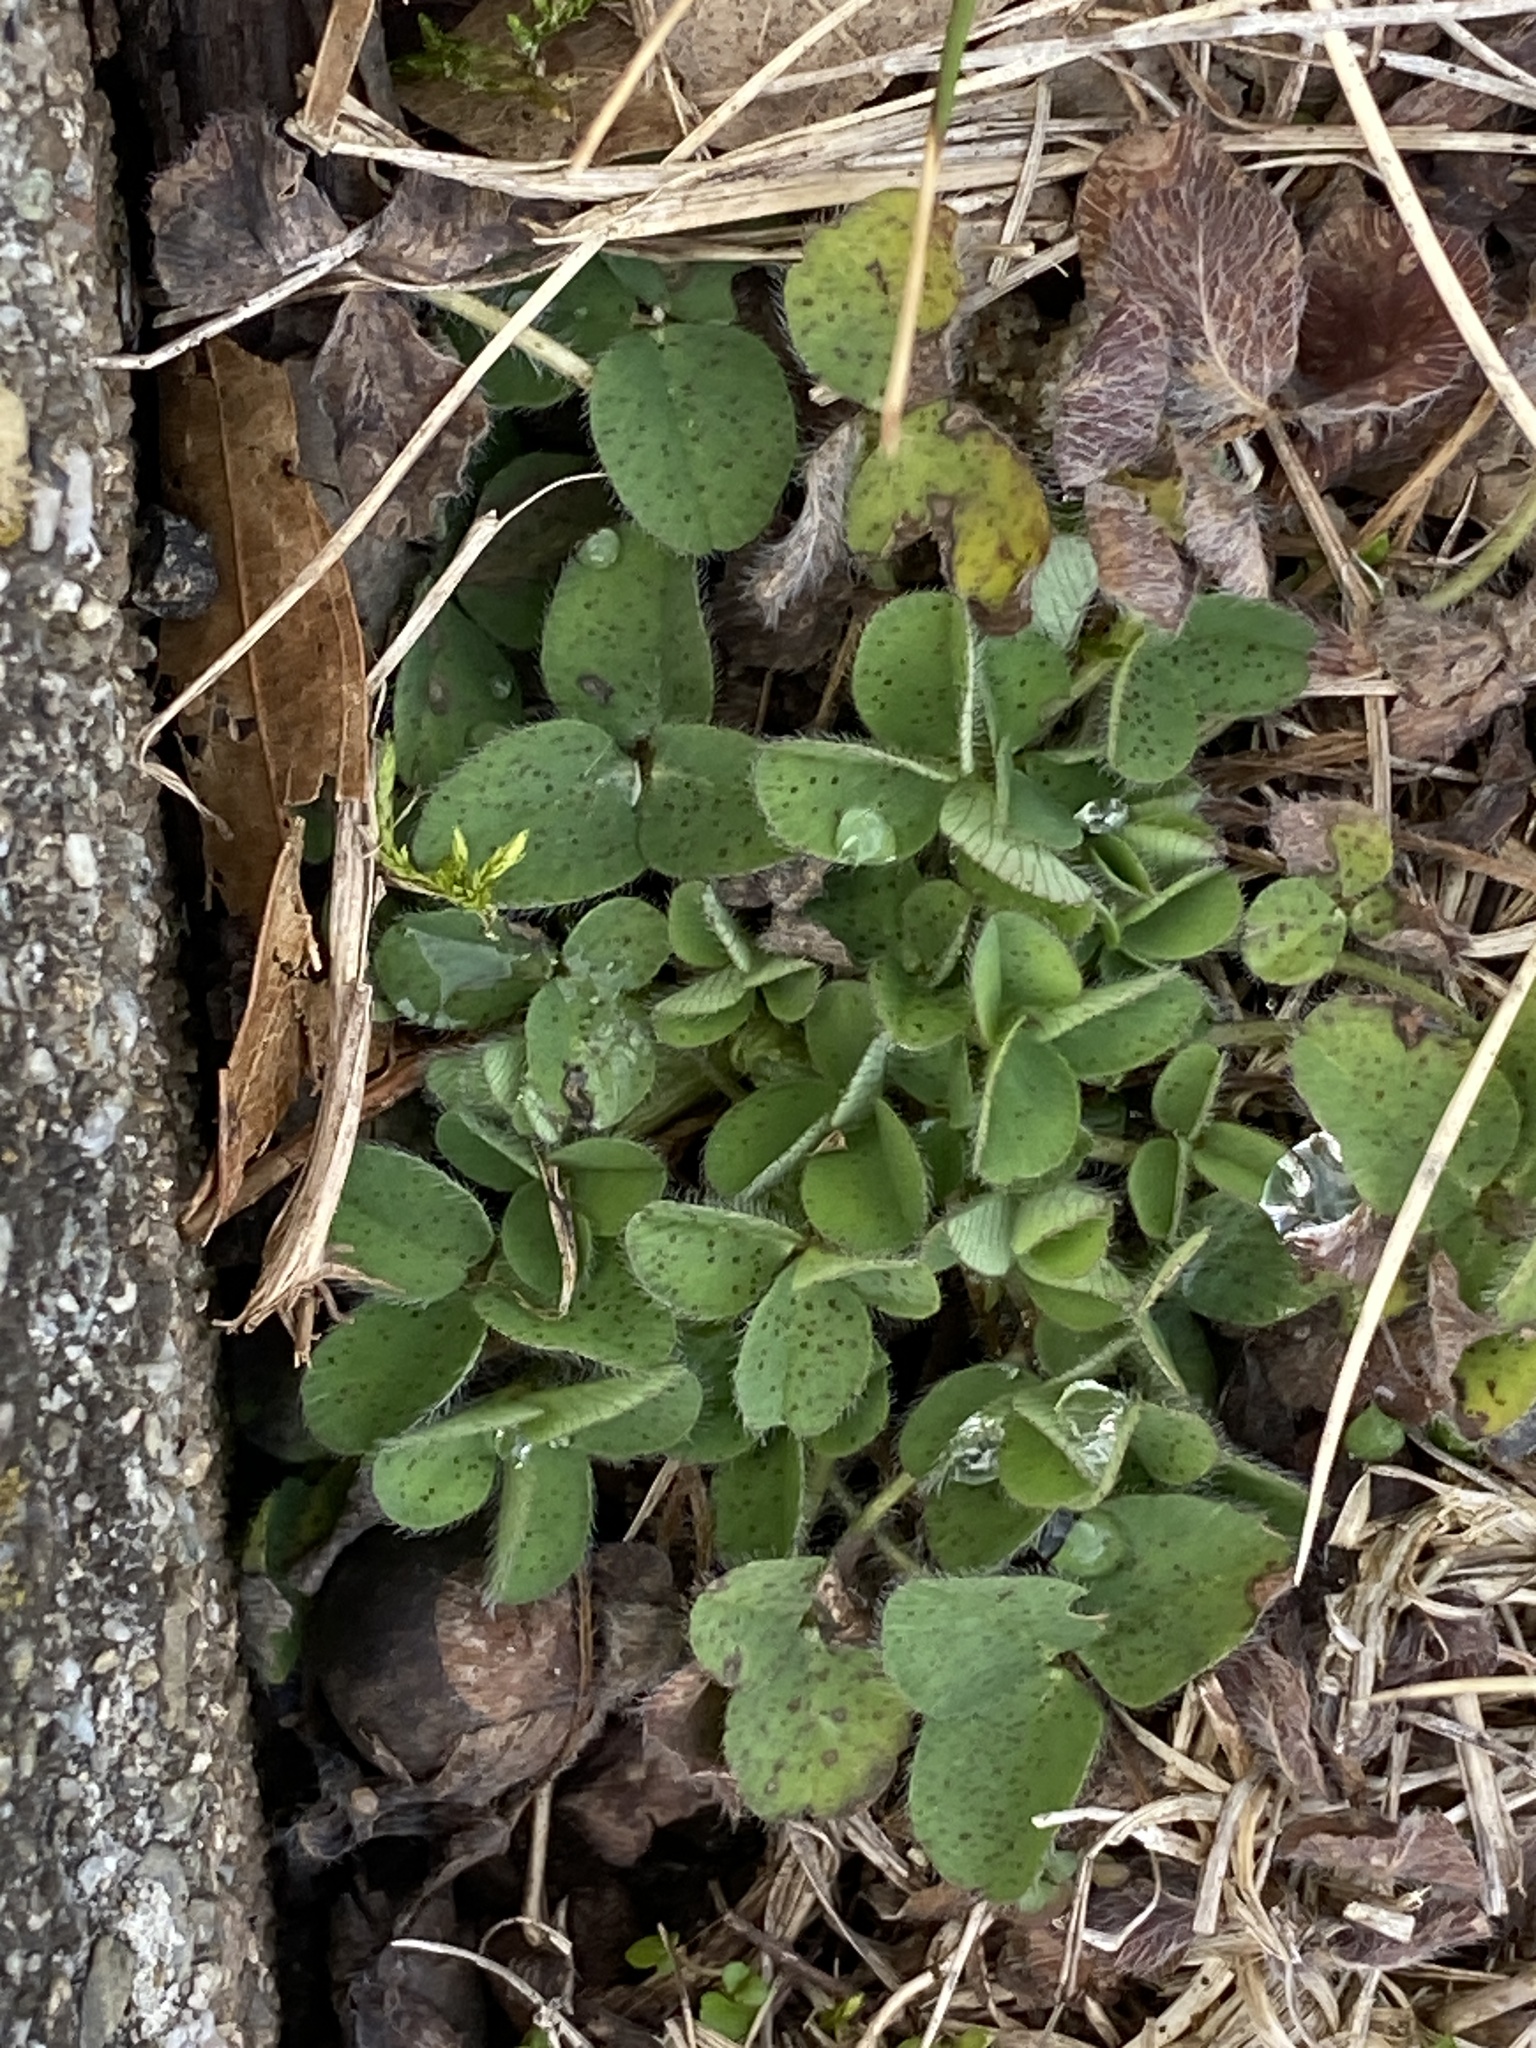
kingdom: Plantae
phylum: Tracheophyta
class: Magnoliopsida
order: Fabales
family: Fabaceae
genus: Trifolium
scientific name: Trifolium pratense
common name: Red clover
